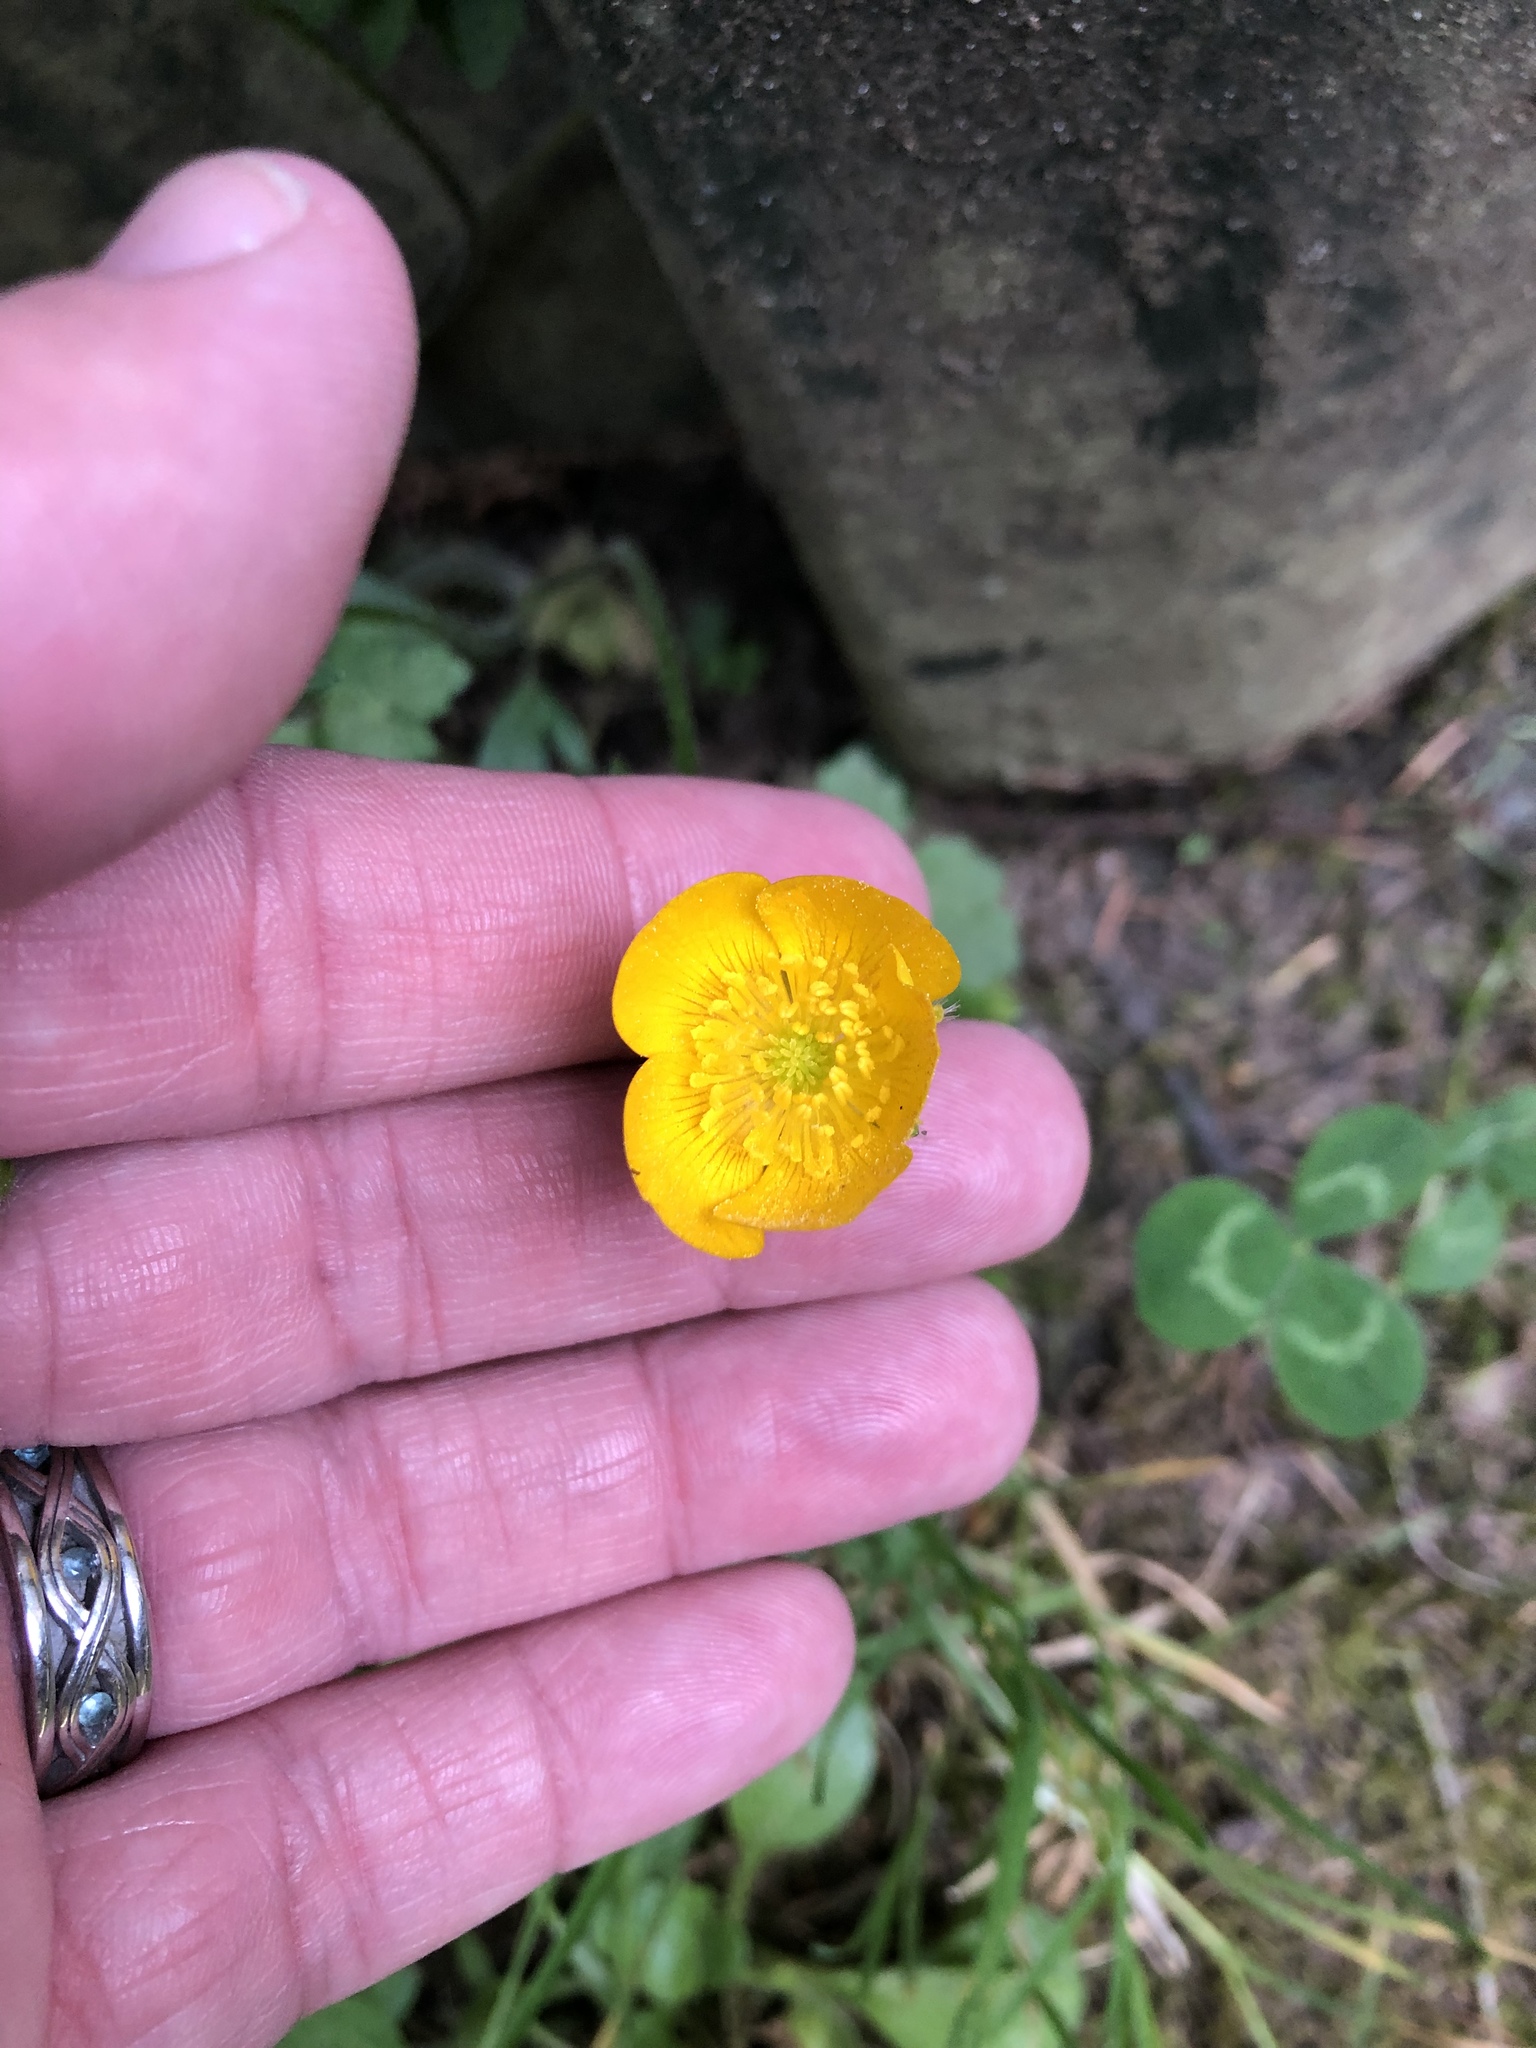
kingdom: Plantae
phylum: Tracheophyta
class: Magnoliopsida
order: Ranunculales
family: Ranunculaceae
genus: Ranunculus
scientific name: Ranunculus repens
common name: Creeping buttercup
